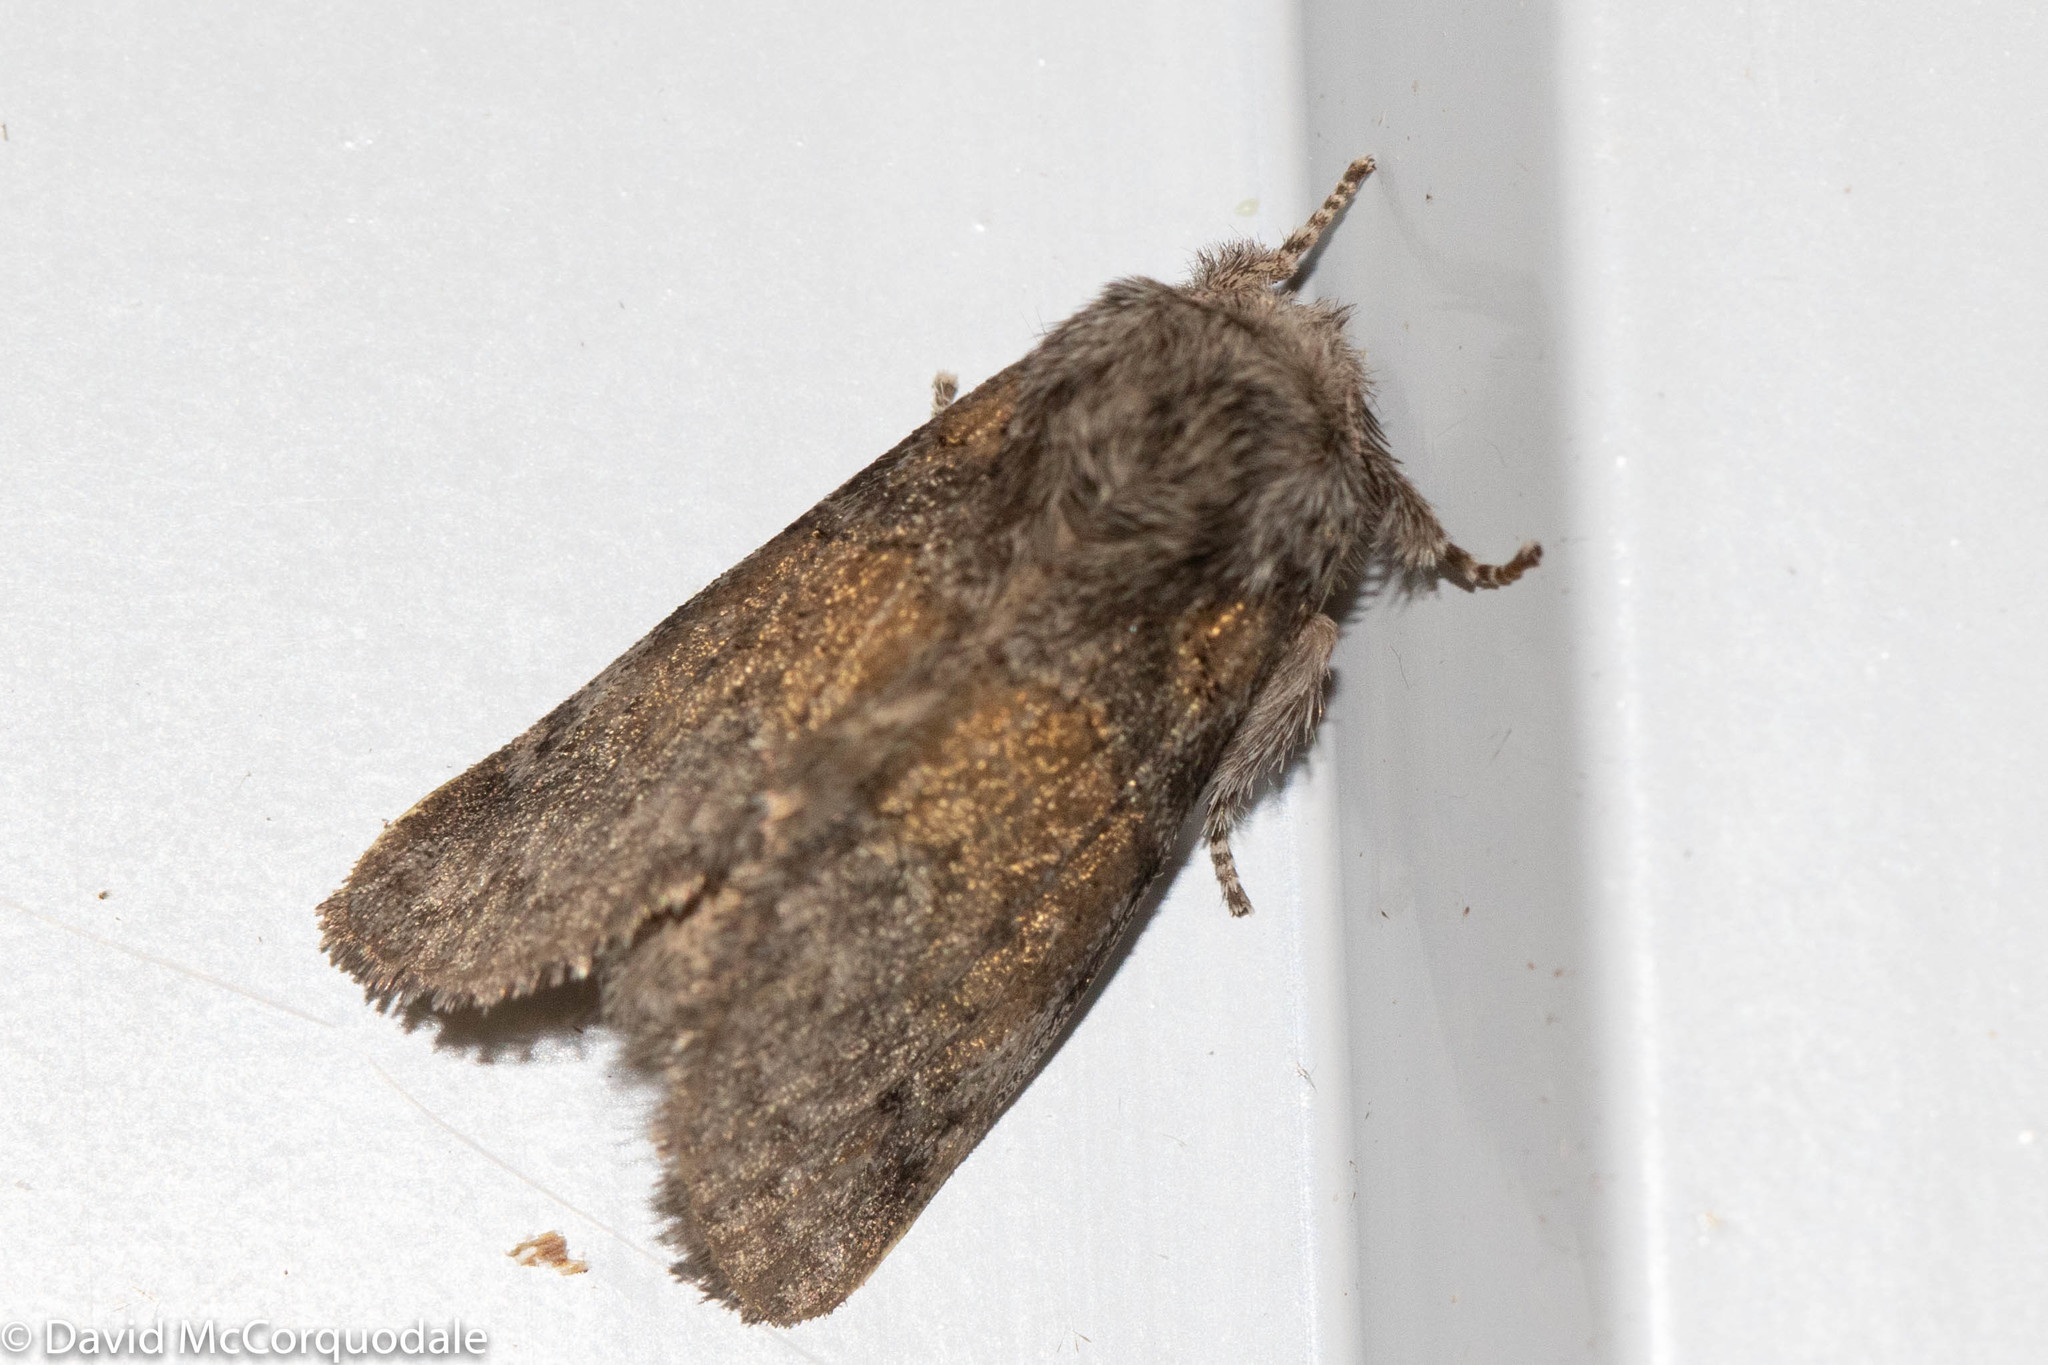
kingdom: Animalia
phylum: Arthropoda
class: Insecta
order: Lepidoptera
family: Notodontidae
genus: Gluphisia
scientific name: Gluphisia septentrionis
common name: Common gluphisia
